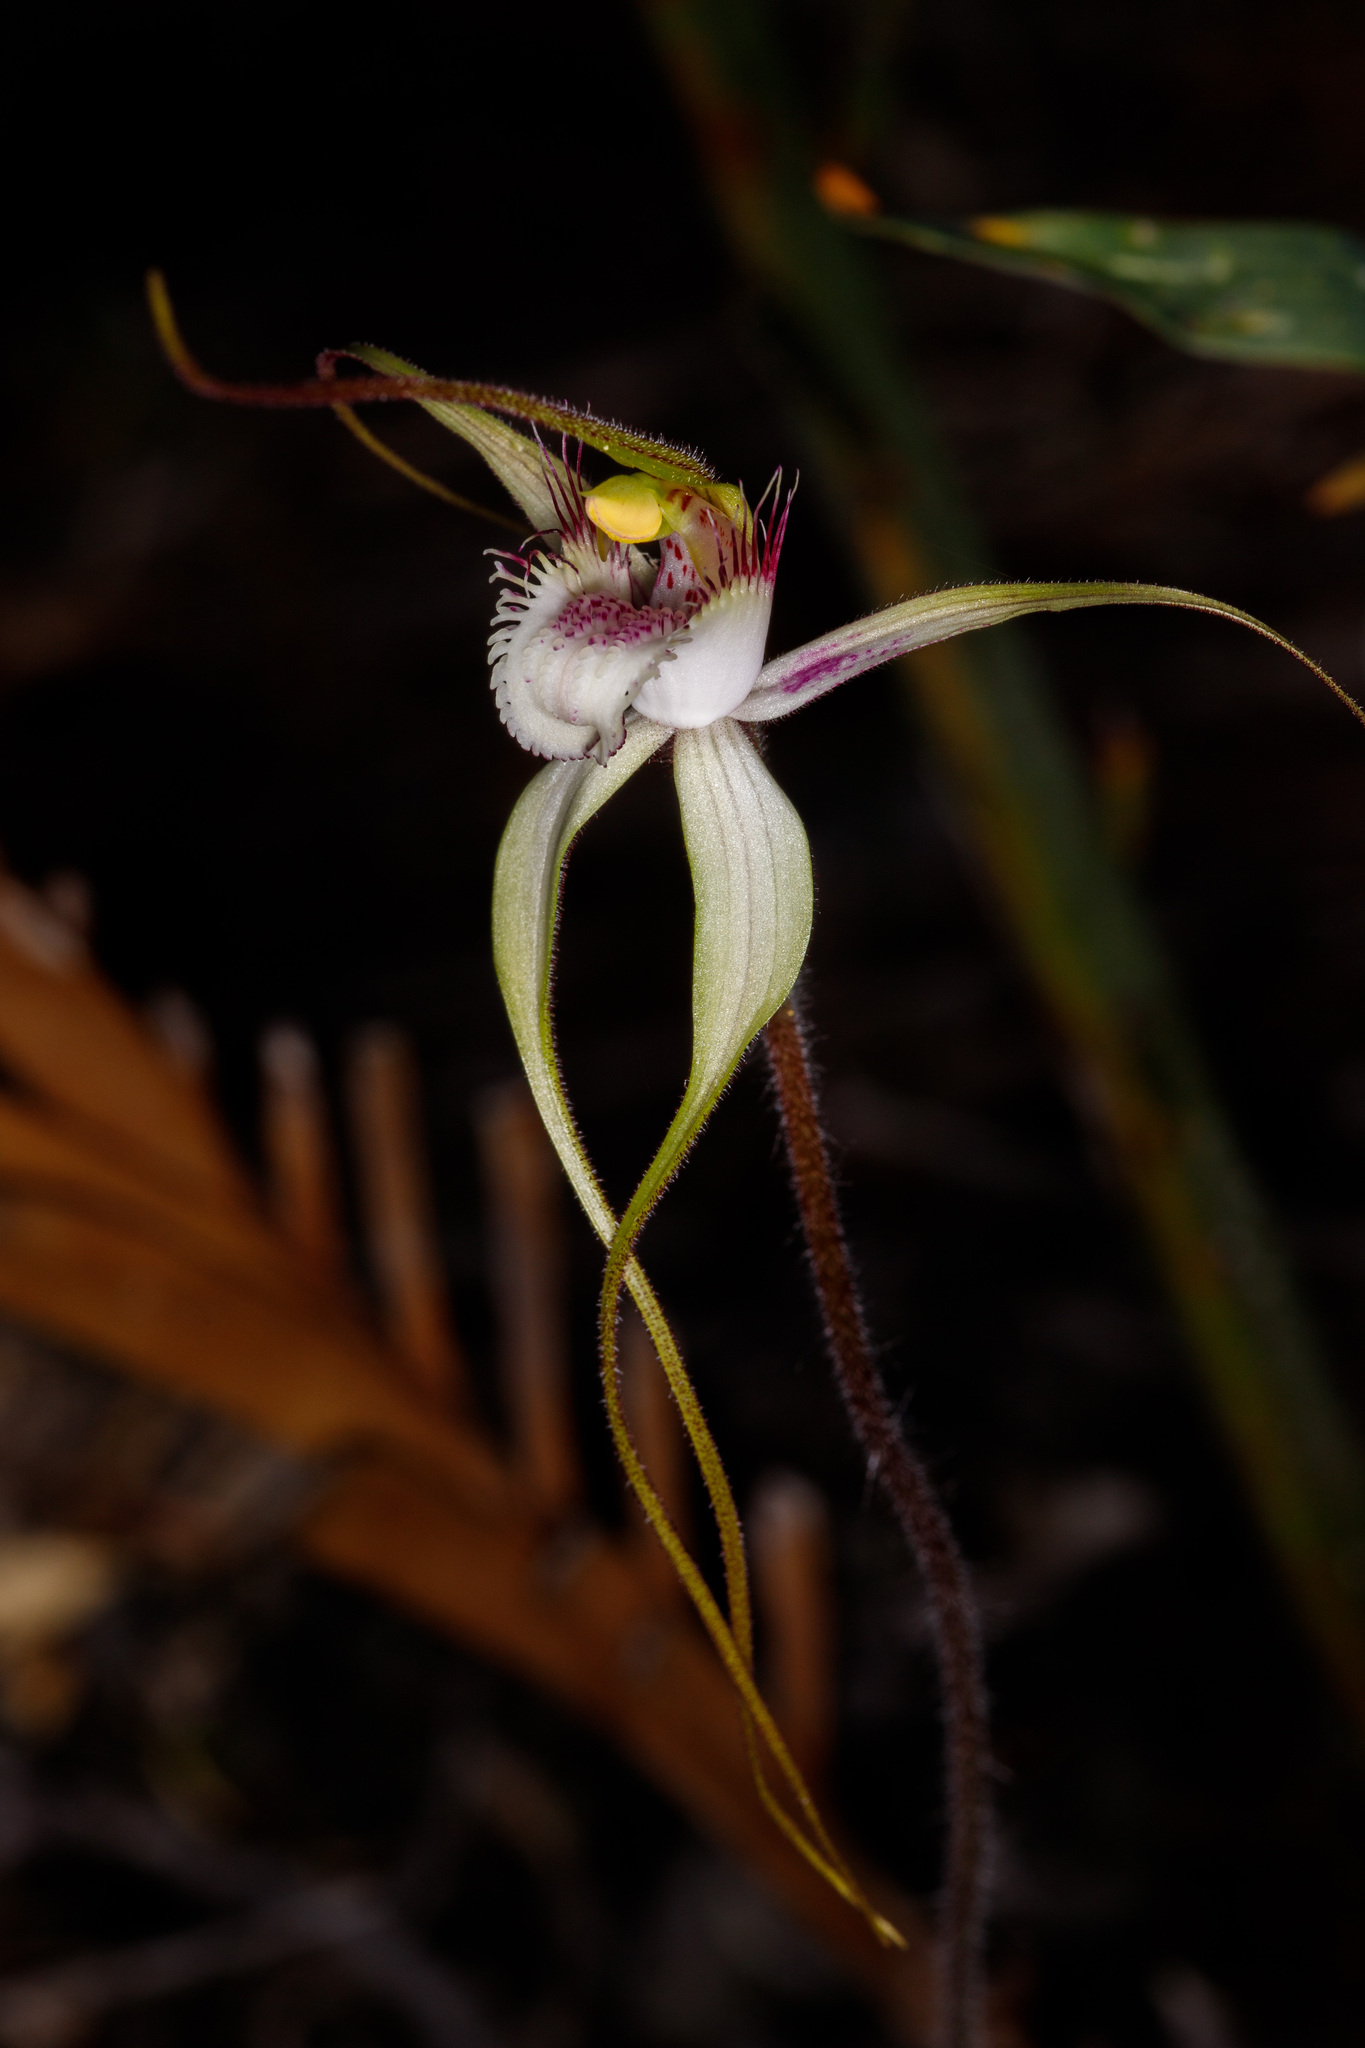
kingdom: Plantae
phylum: Tracheophyta
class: Liliopsida
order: Asparagales
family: Orchidaceae
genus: Caladenia
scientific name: Caladenia speciosa
